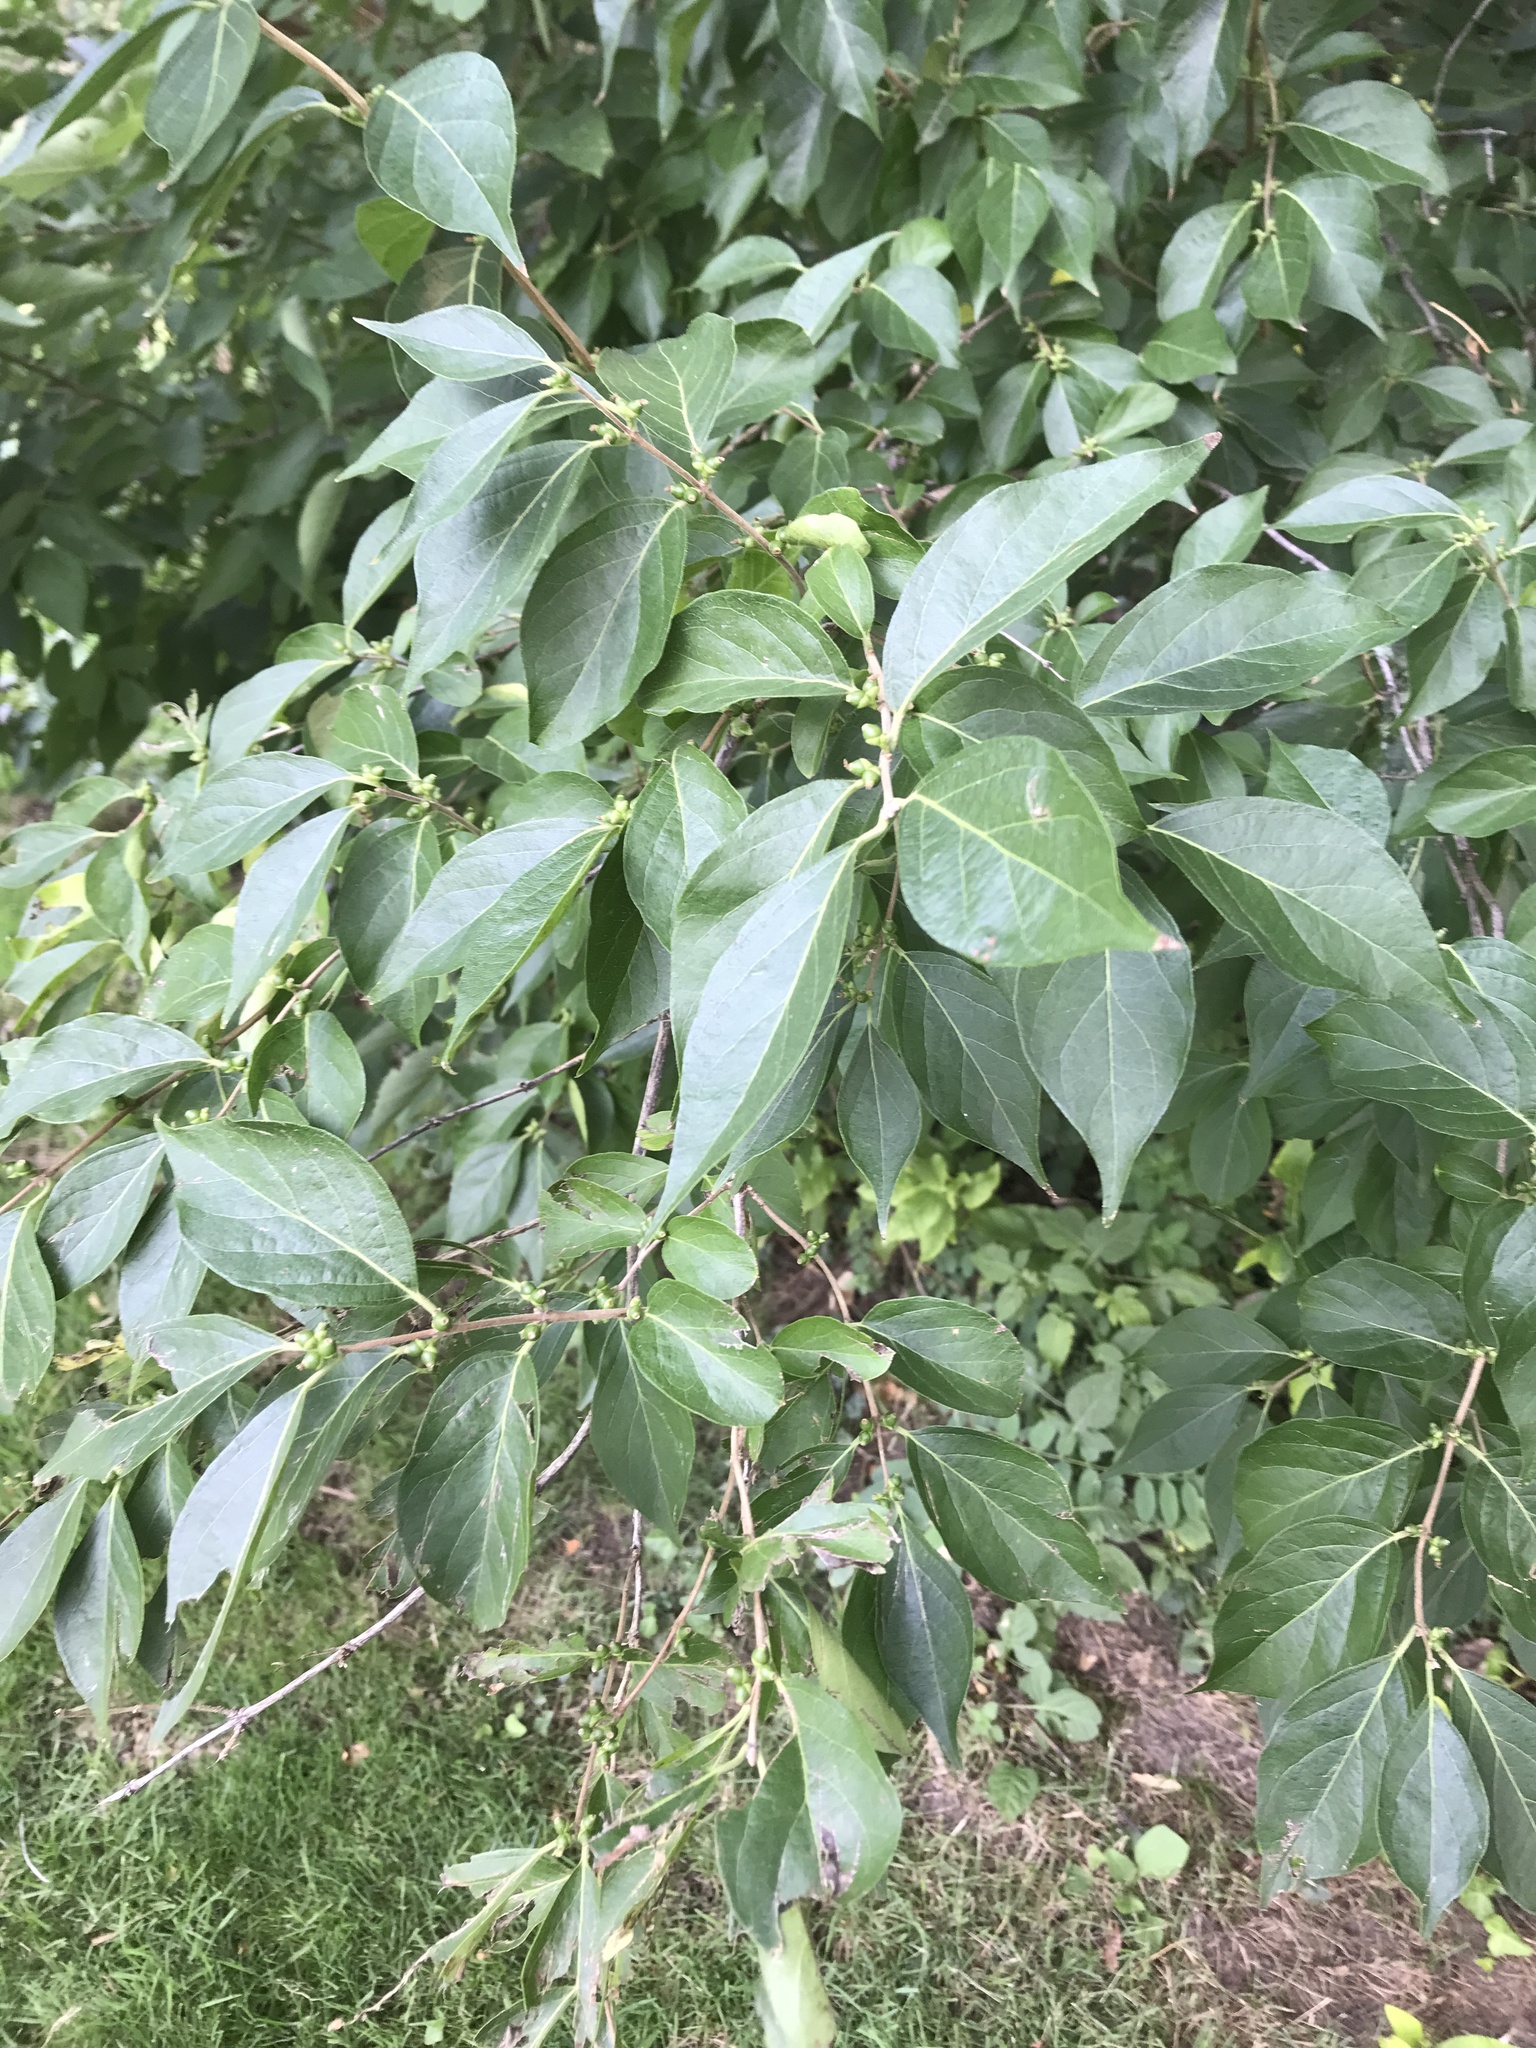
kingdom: Plantae
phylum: Tracheophyta
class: Magnoliopsida
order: Dipsacales
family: Caprifoliaceae
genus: Lonicera
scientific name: Lonicera maackii
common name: Amur honeysuckle
